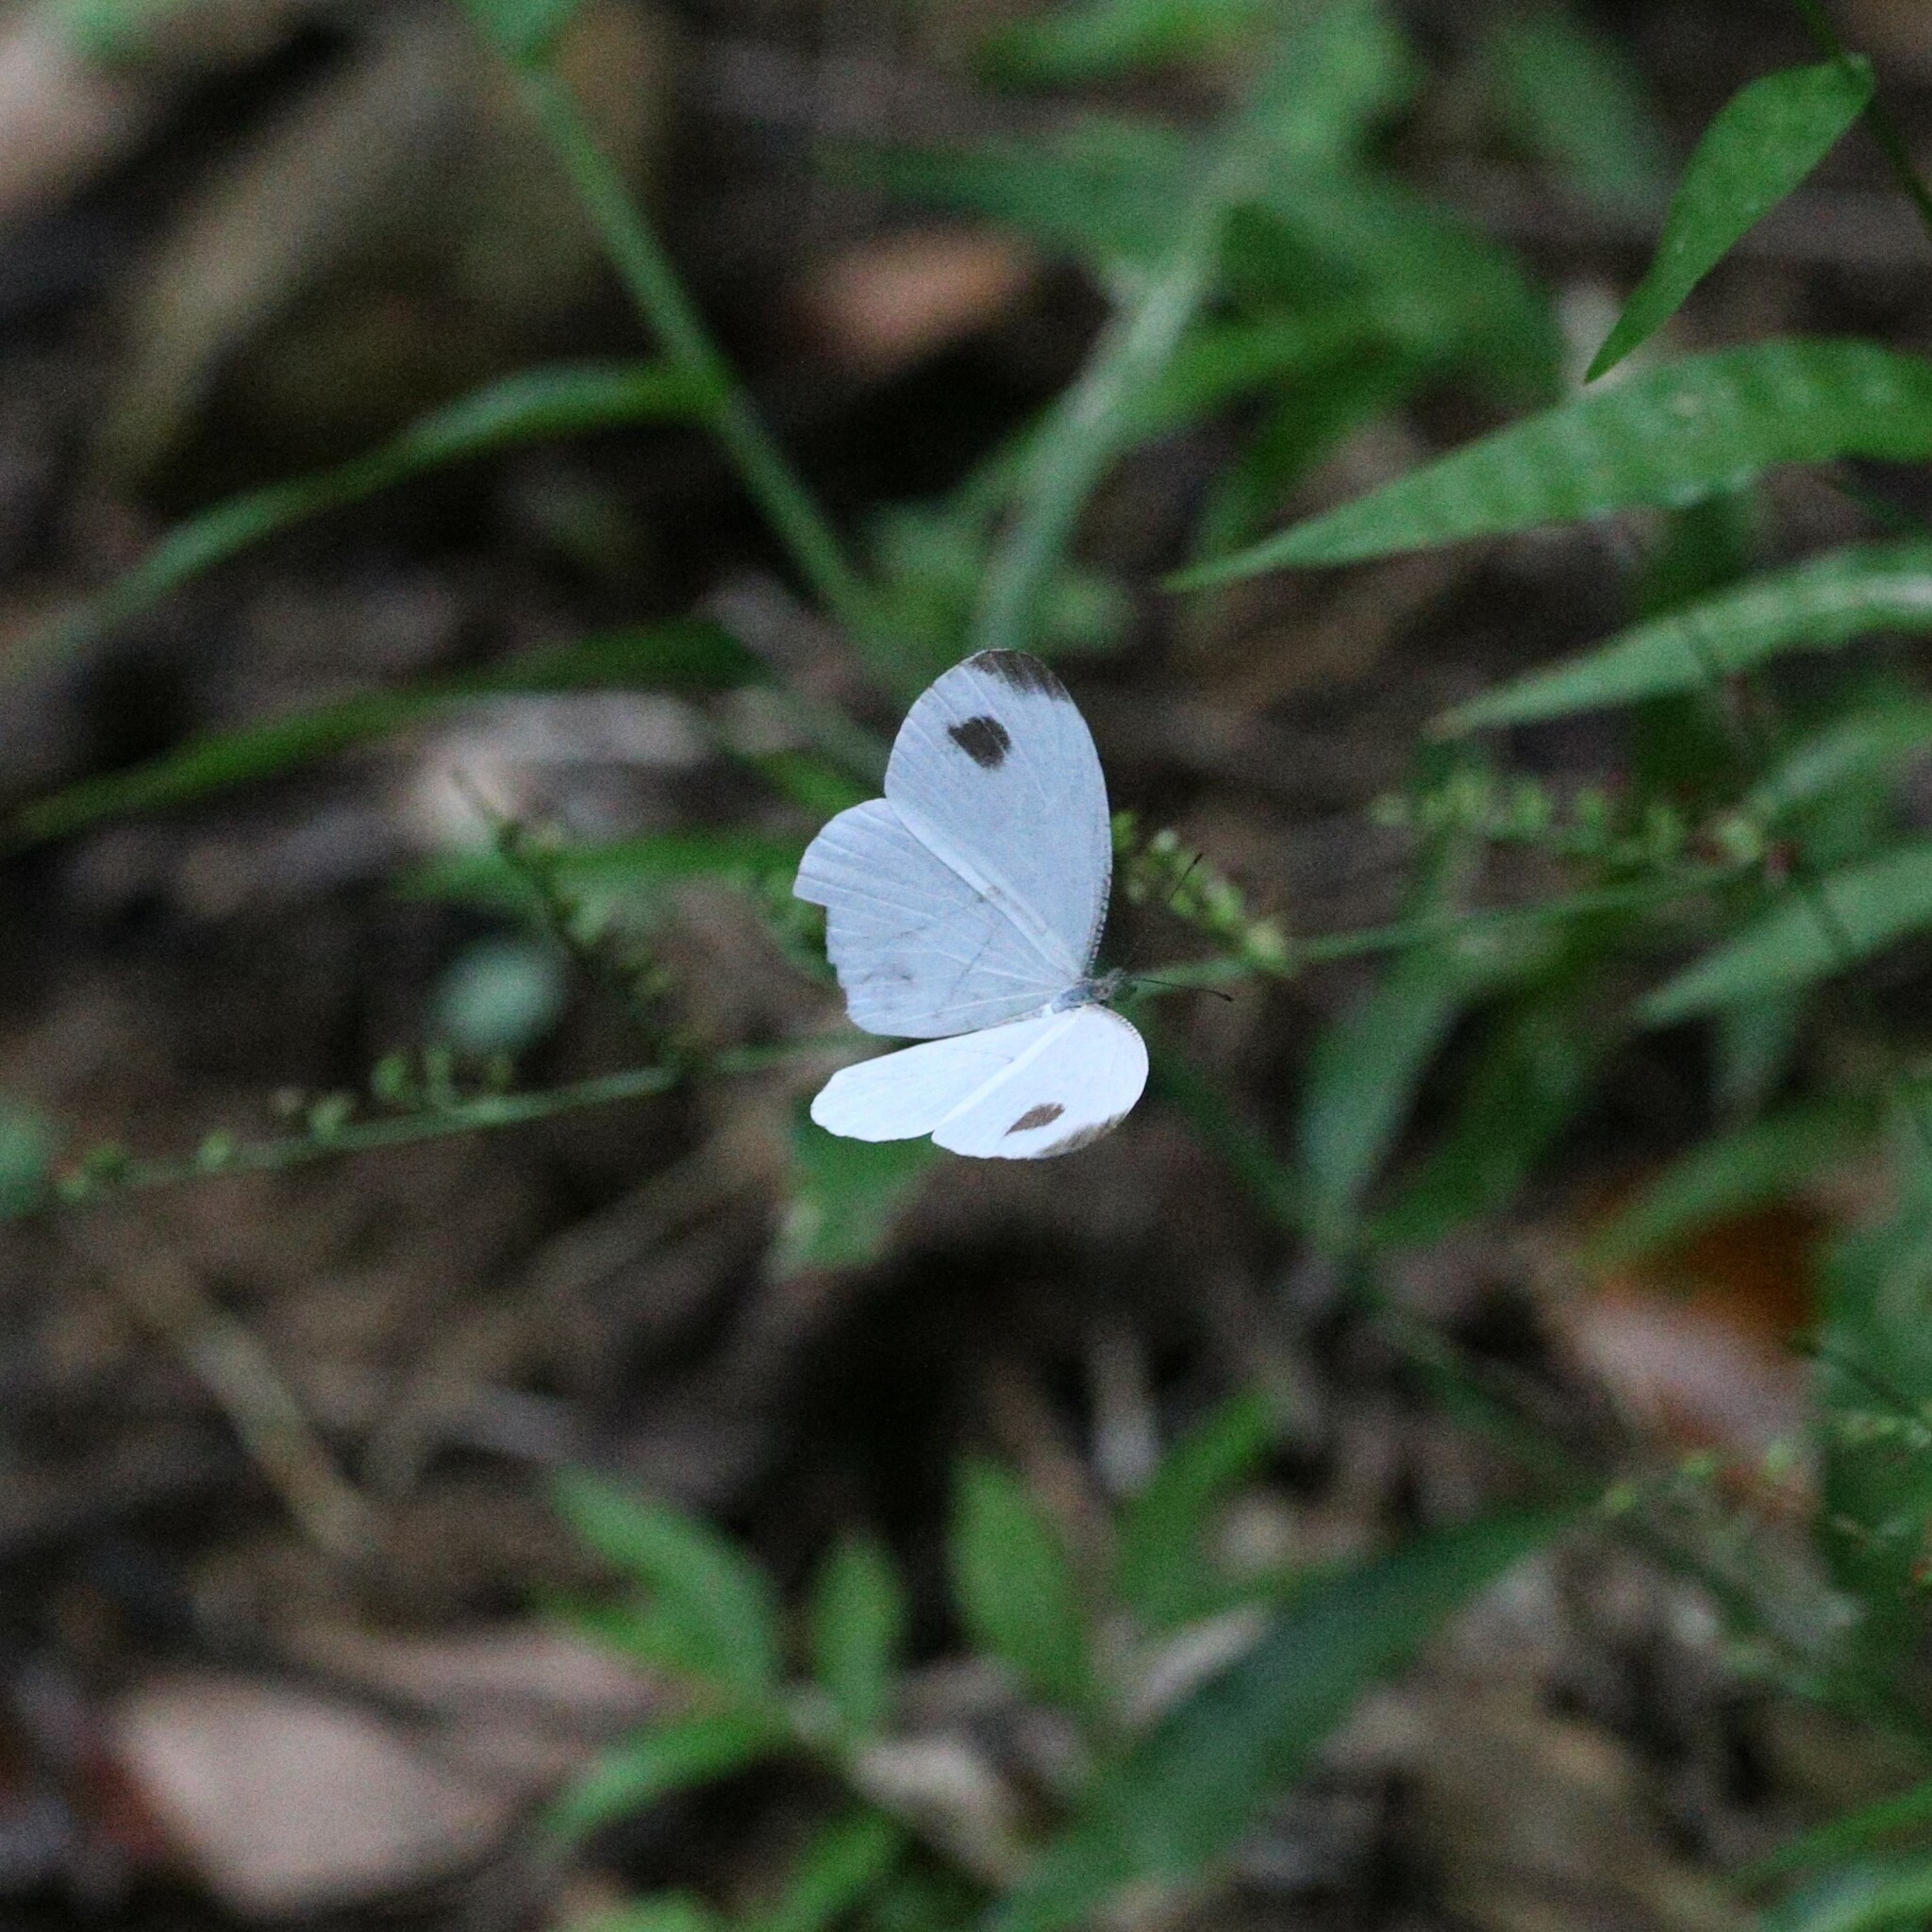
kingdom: Animalia
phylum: Arthropoda
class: Insecta
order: Lepidoptera
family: Pieridae
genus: Leptosia
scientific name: Leptosia nina
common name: Psyche
